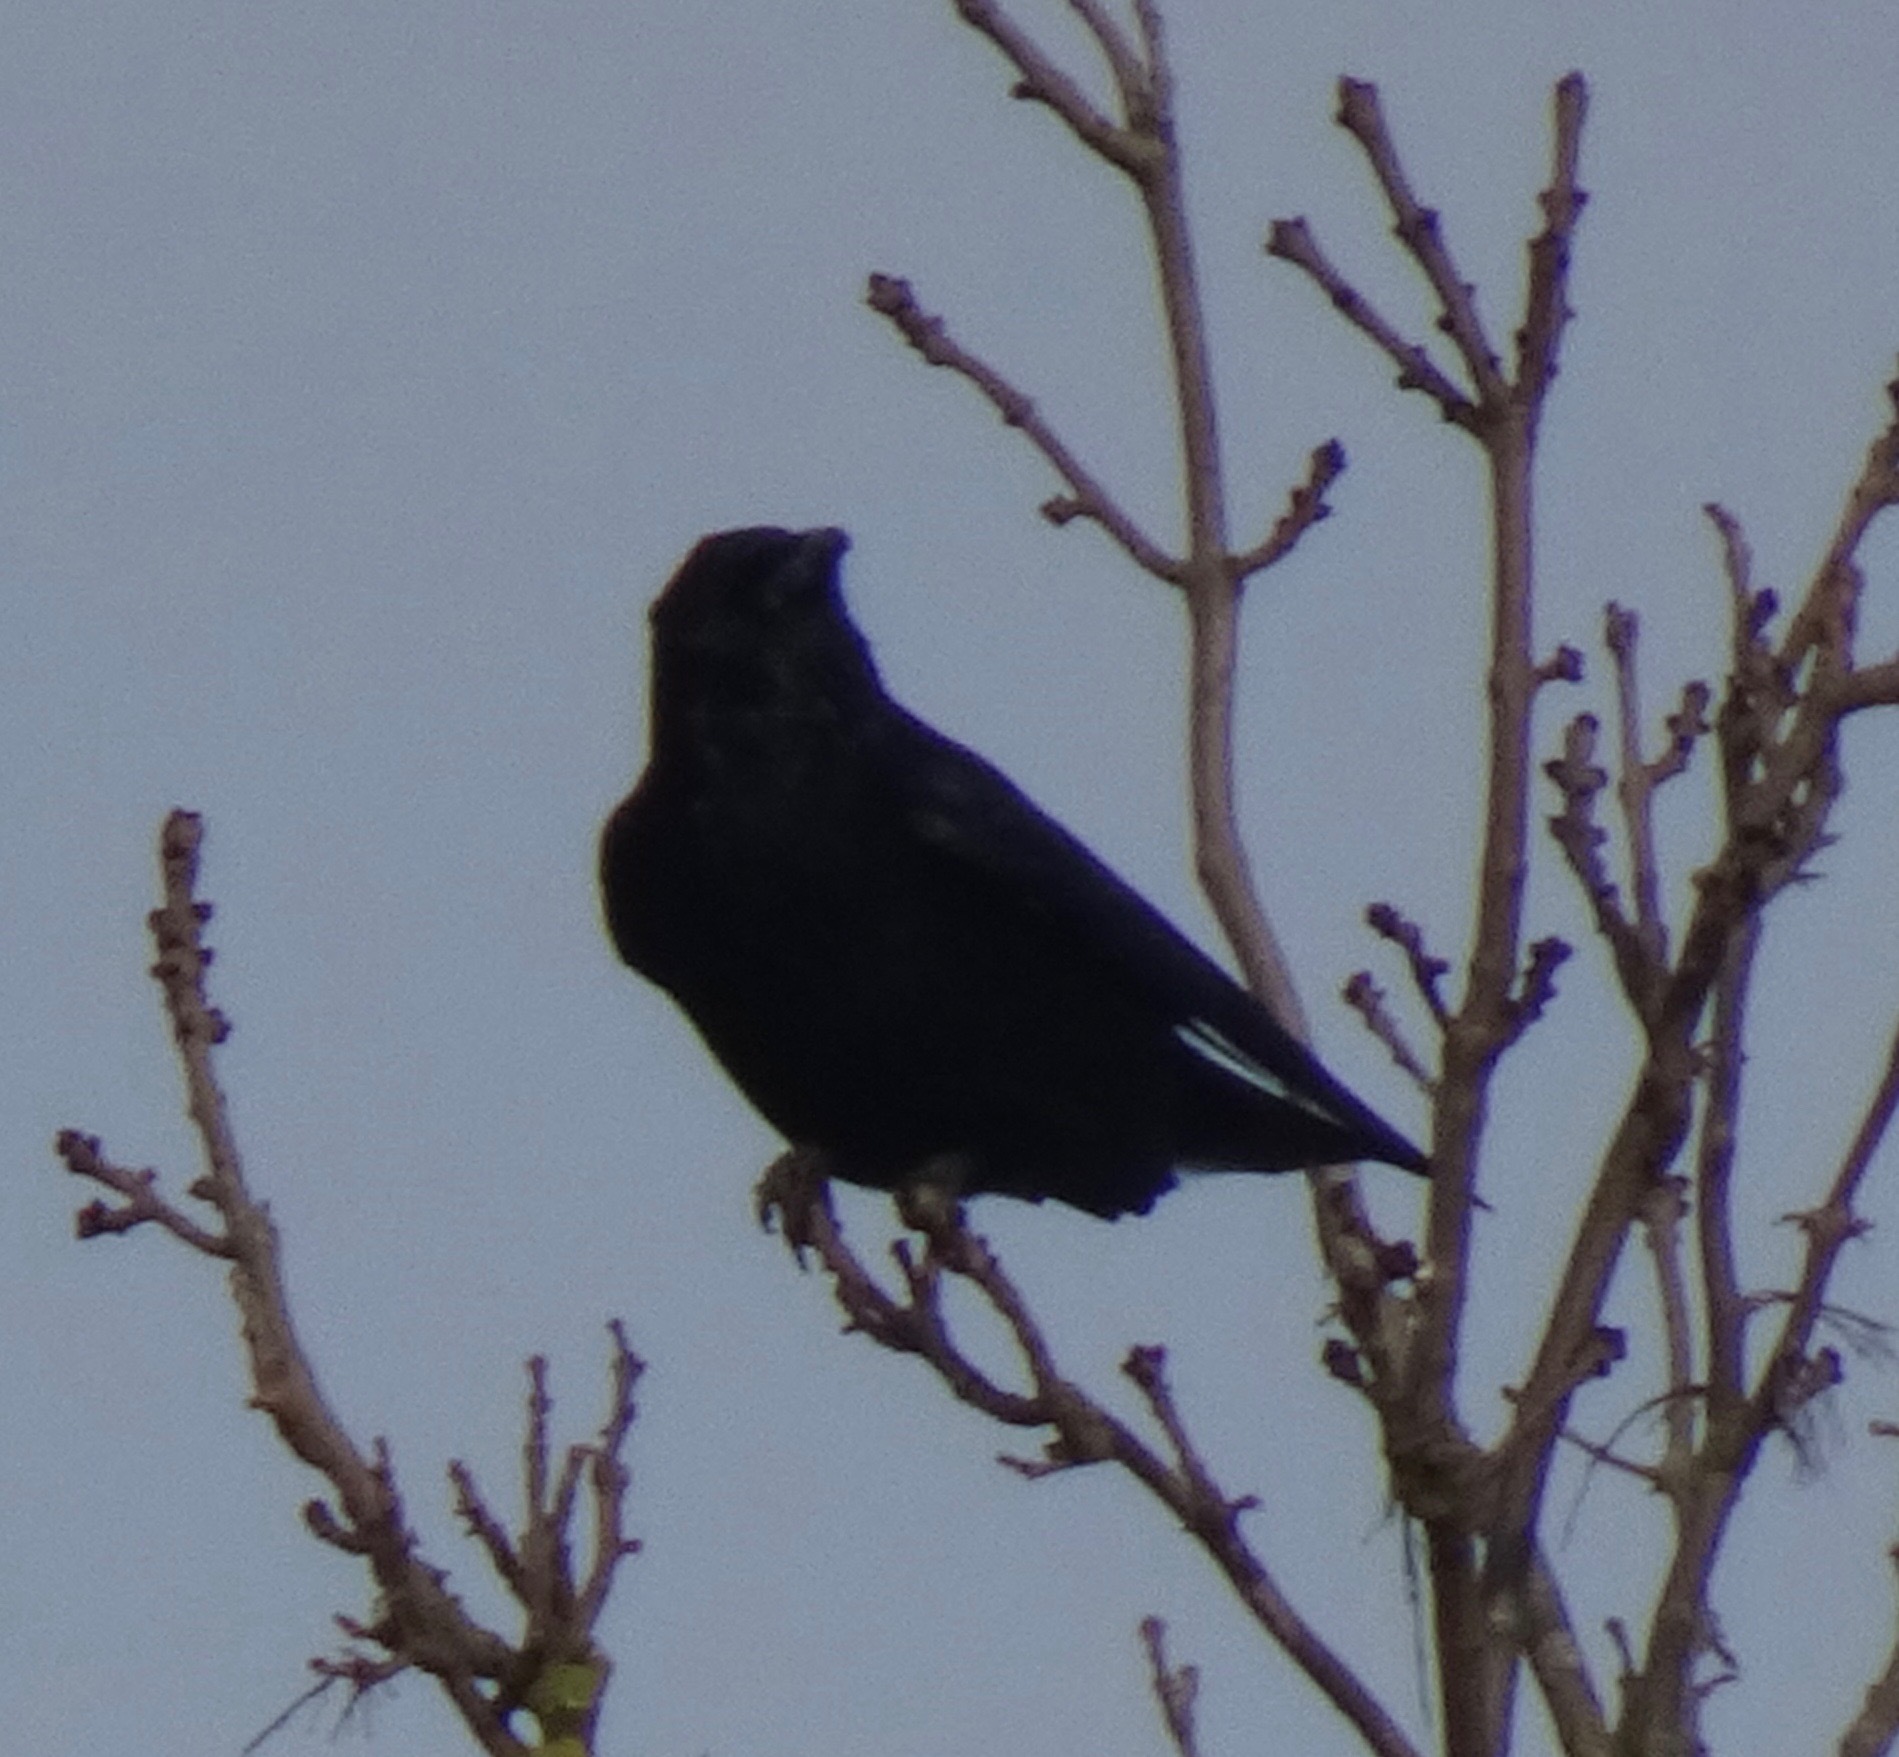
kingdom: Animalia
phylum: Chordata
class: Aves
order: Passeriformes
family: Corvidae
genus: Corvus
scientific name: Corvus corone
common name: Carrion crow
